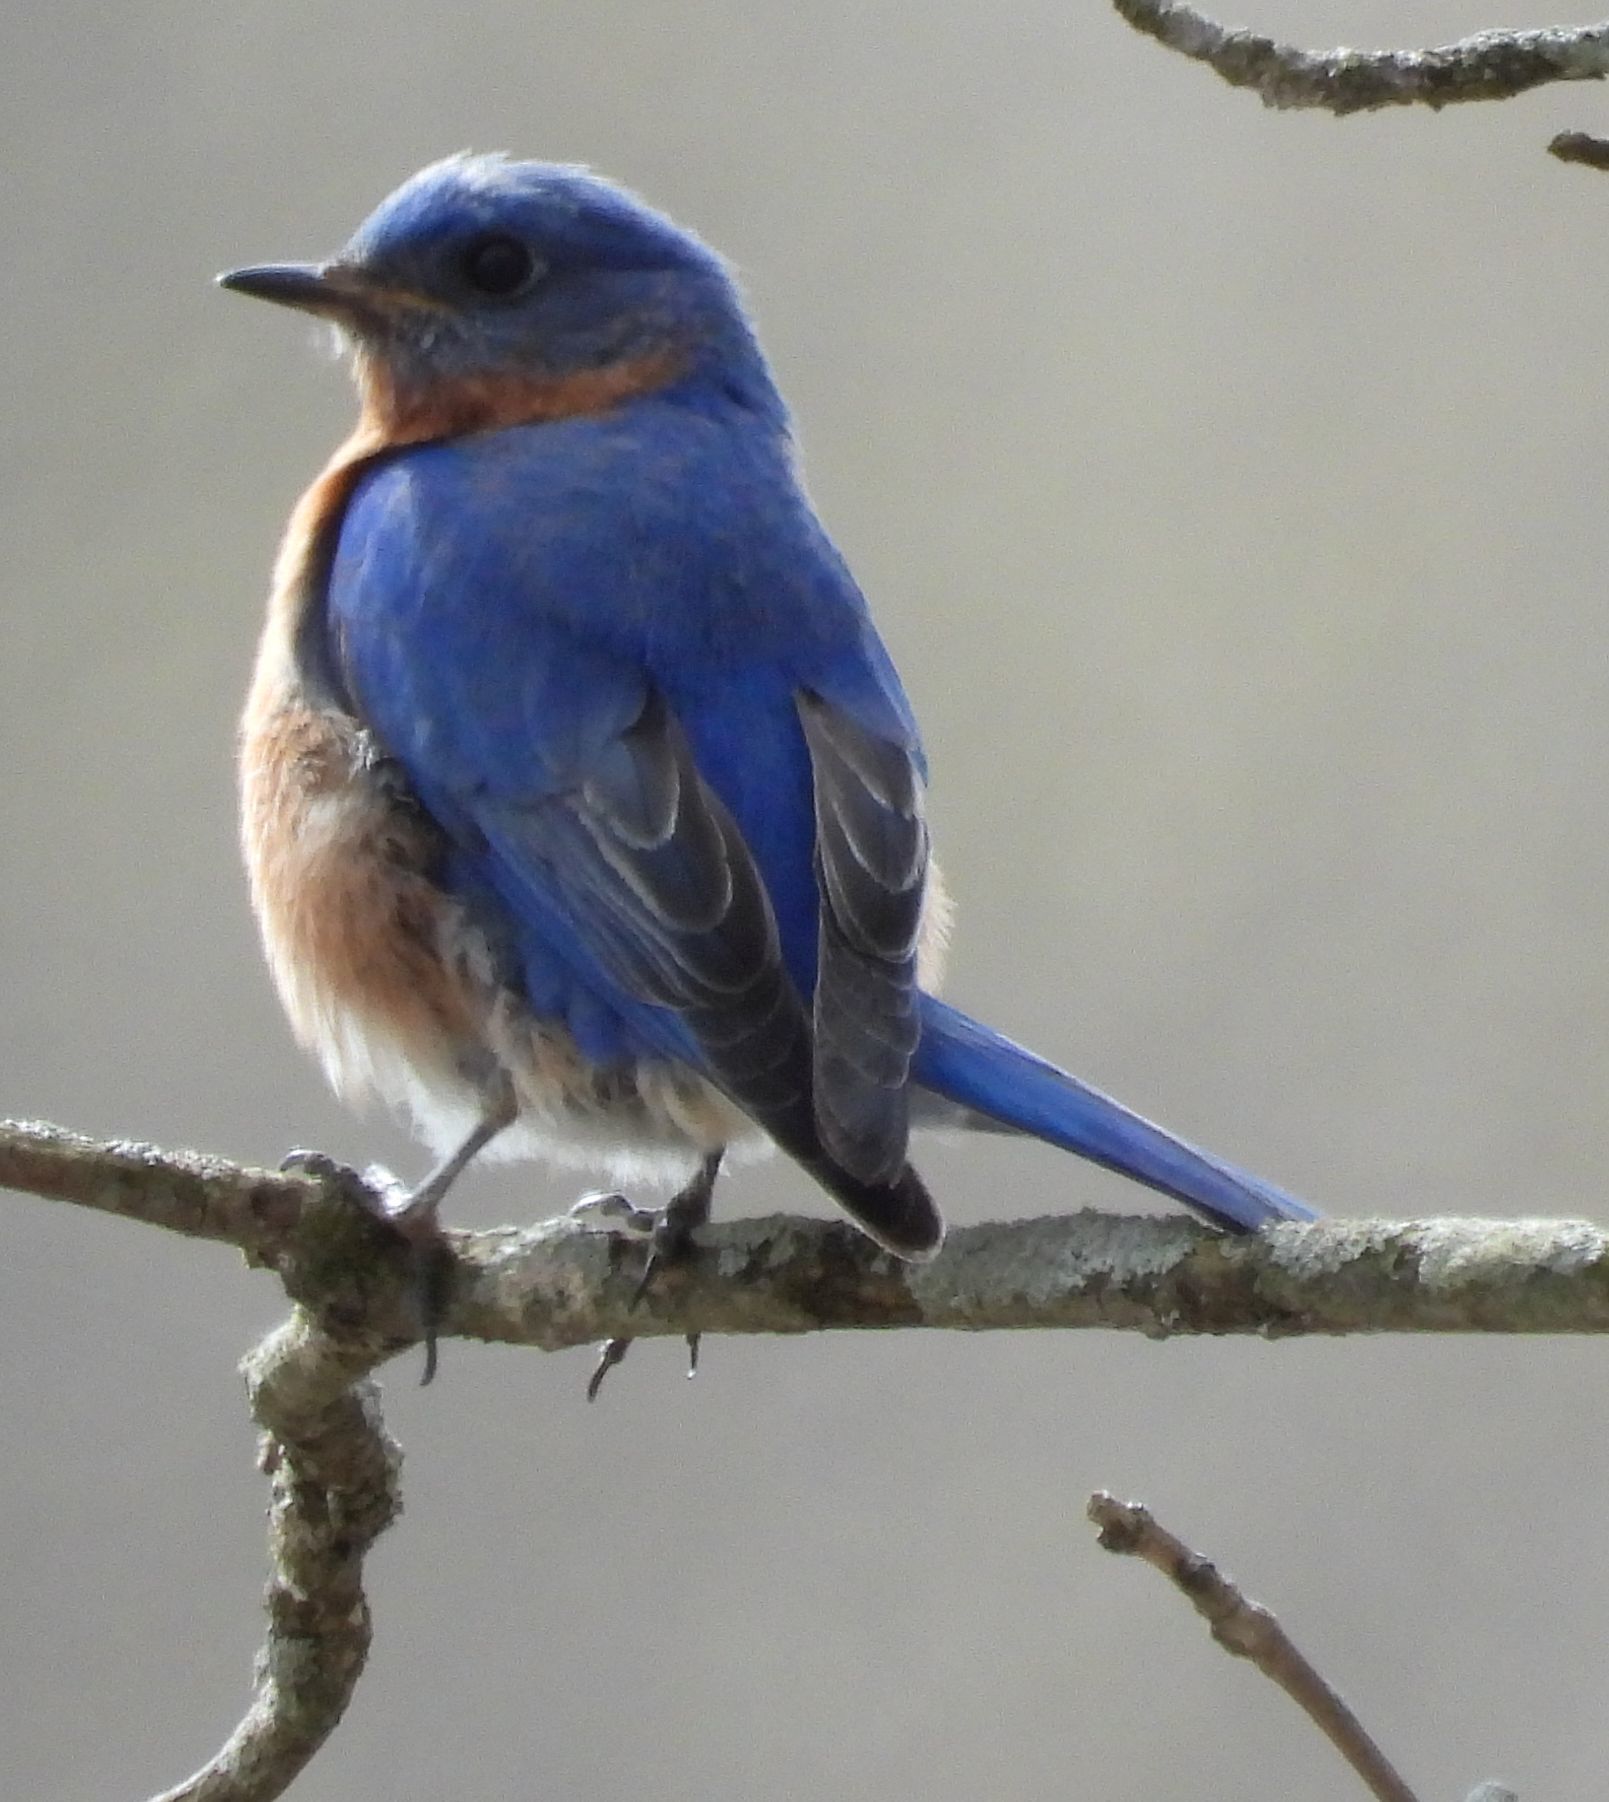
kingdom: Animalia
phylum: Chordata
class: Aves
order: Passeriformes
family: Turdidae
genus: Sialia
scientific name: Sialia sialis
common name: Eastern bluebird
